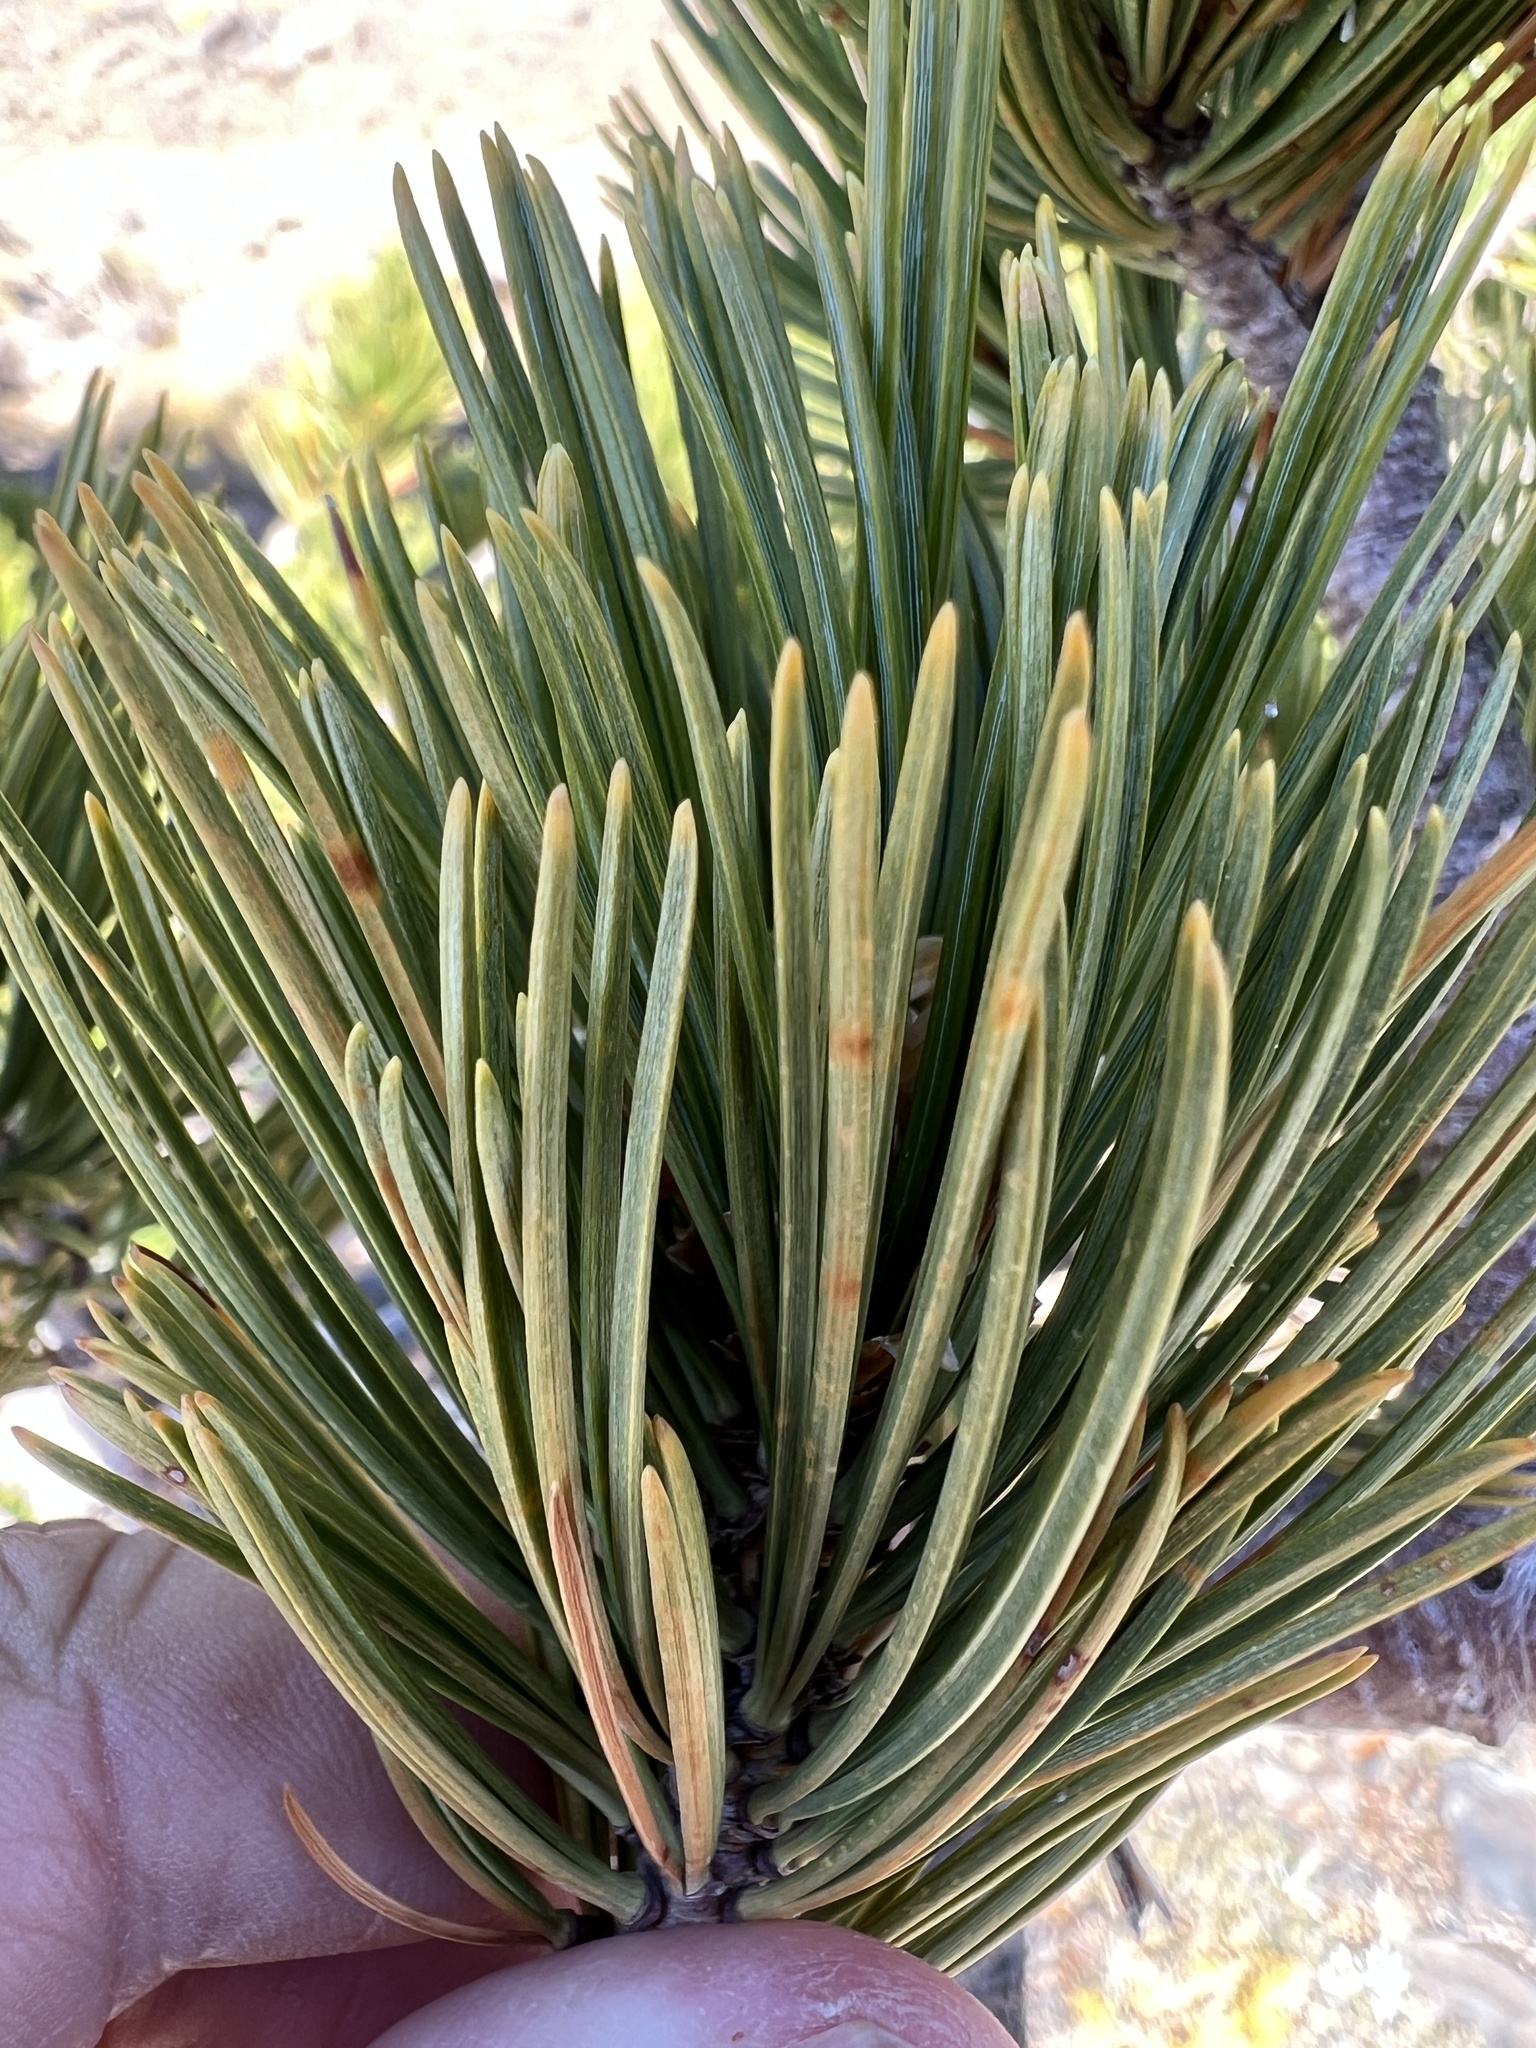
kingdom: Plantae
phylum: Tracheophyta
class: Pinopsida
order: Pinales
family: Pinaceae
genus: Pinus
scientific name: Pinus albicaulis
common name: Whitebark pine
